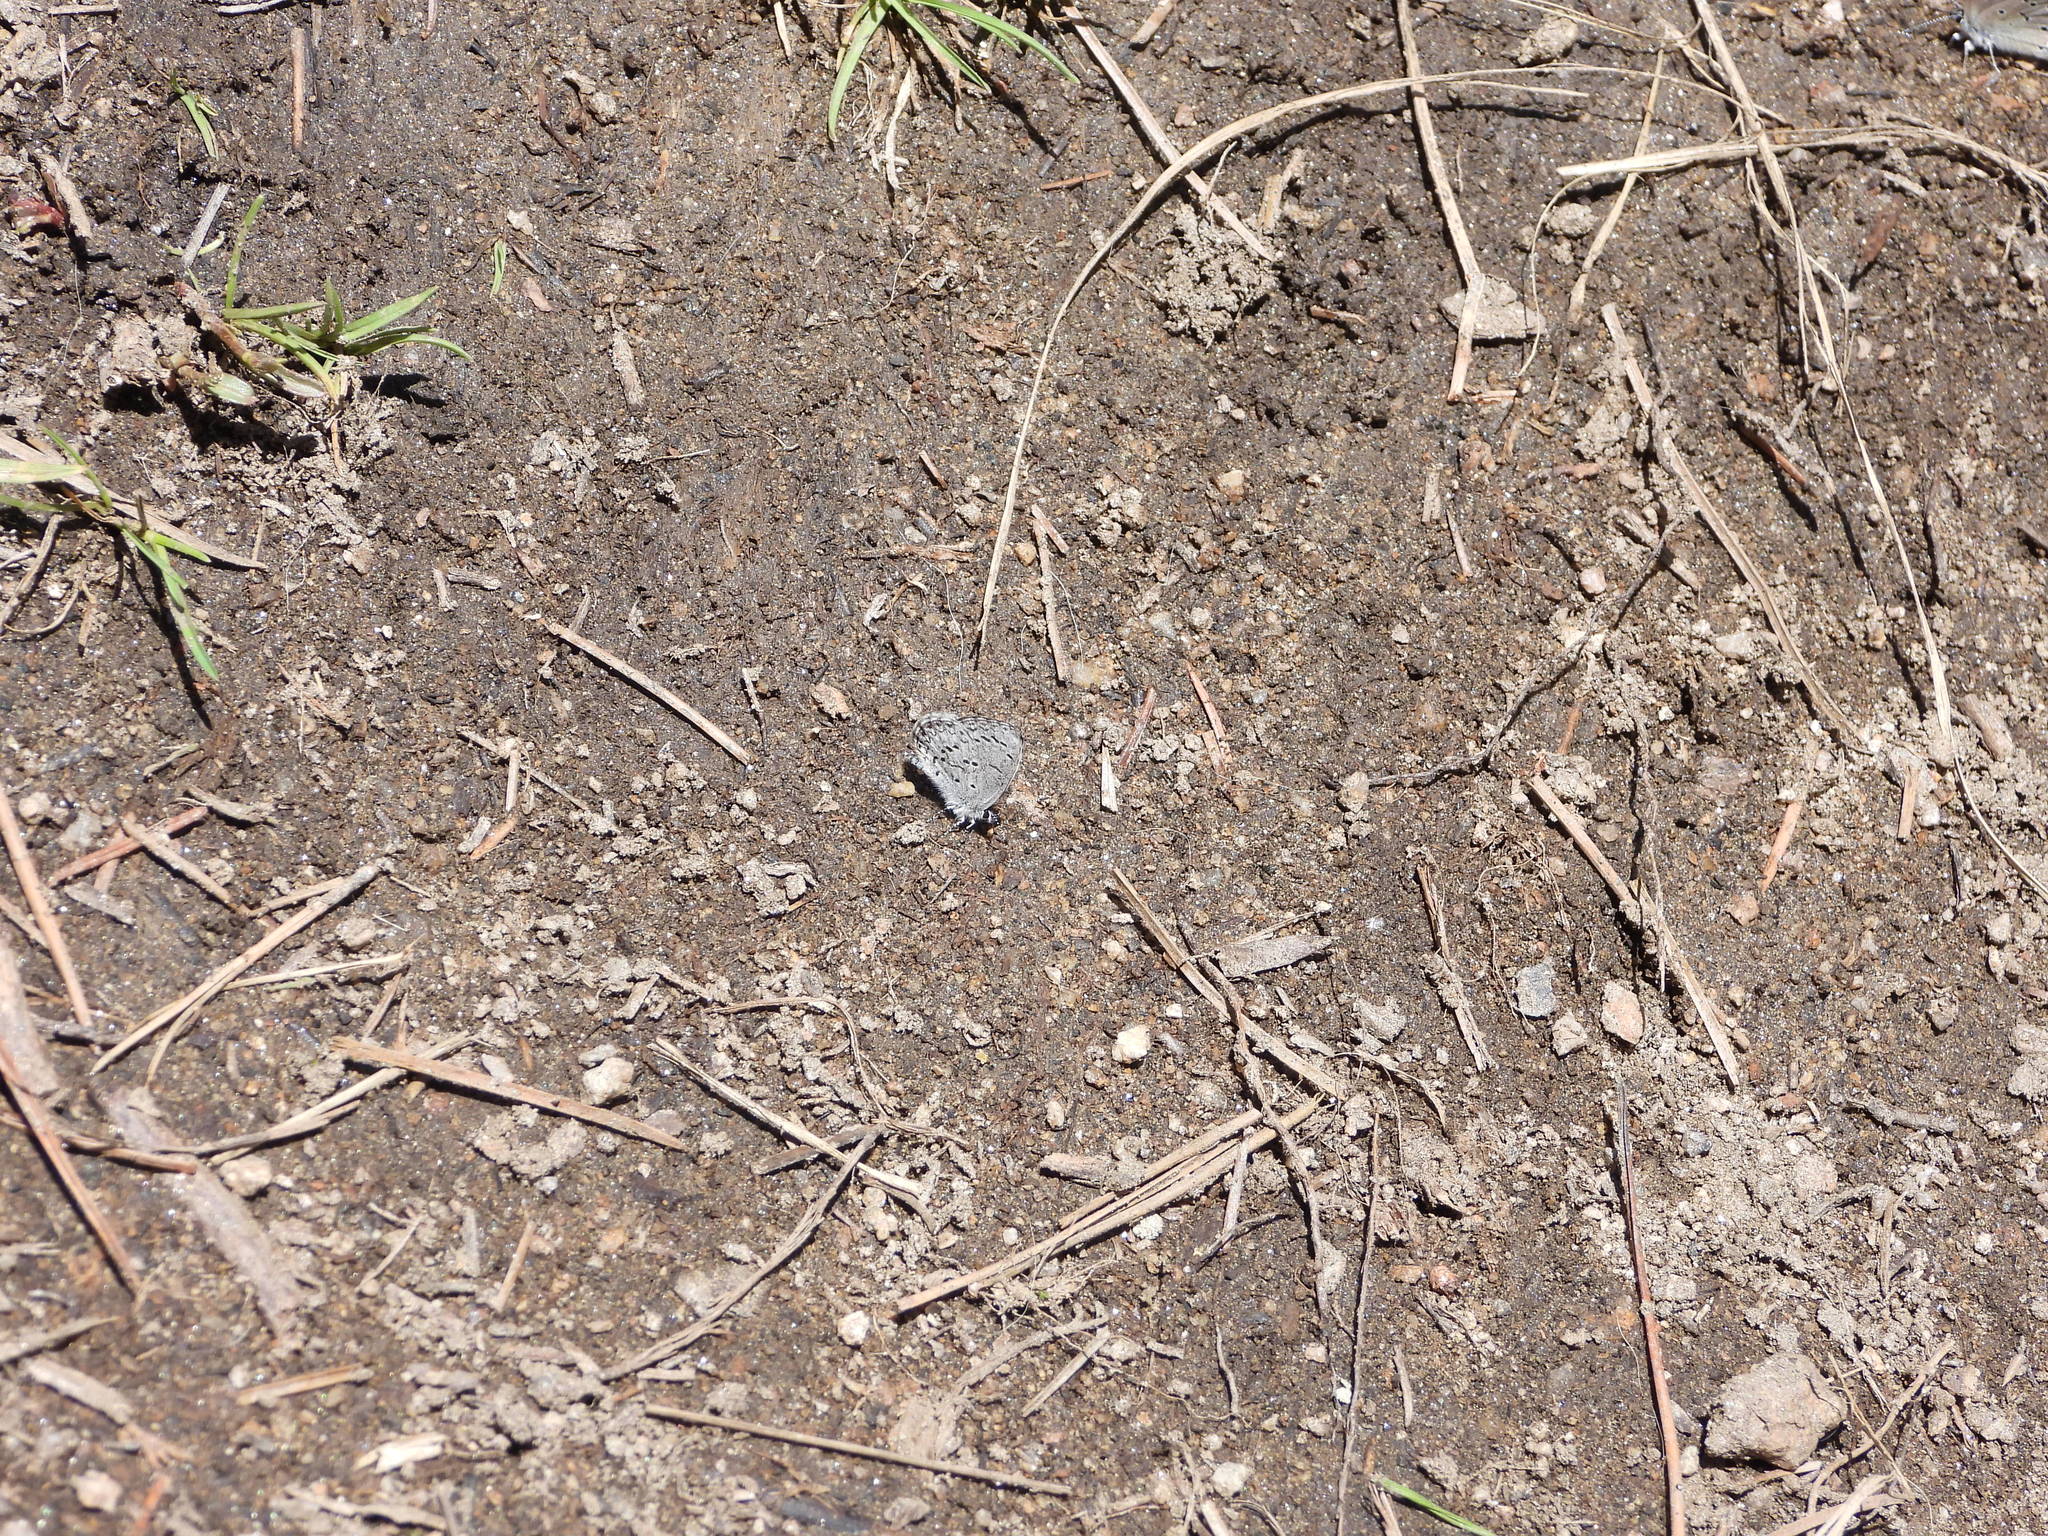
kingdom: Animalia
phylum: Arthropoda
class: Insecta
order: Lepidoptera
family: Lycaenidae
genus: Celastrina
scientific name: Celastrina ladon
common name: Spring azure
